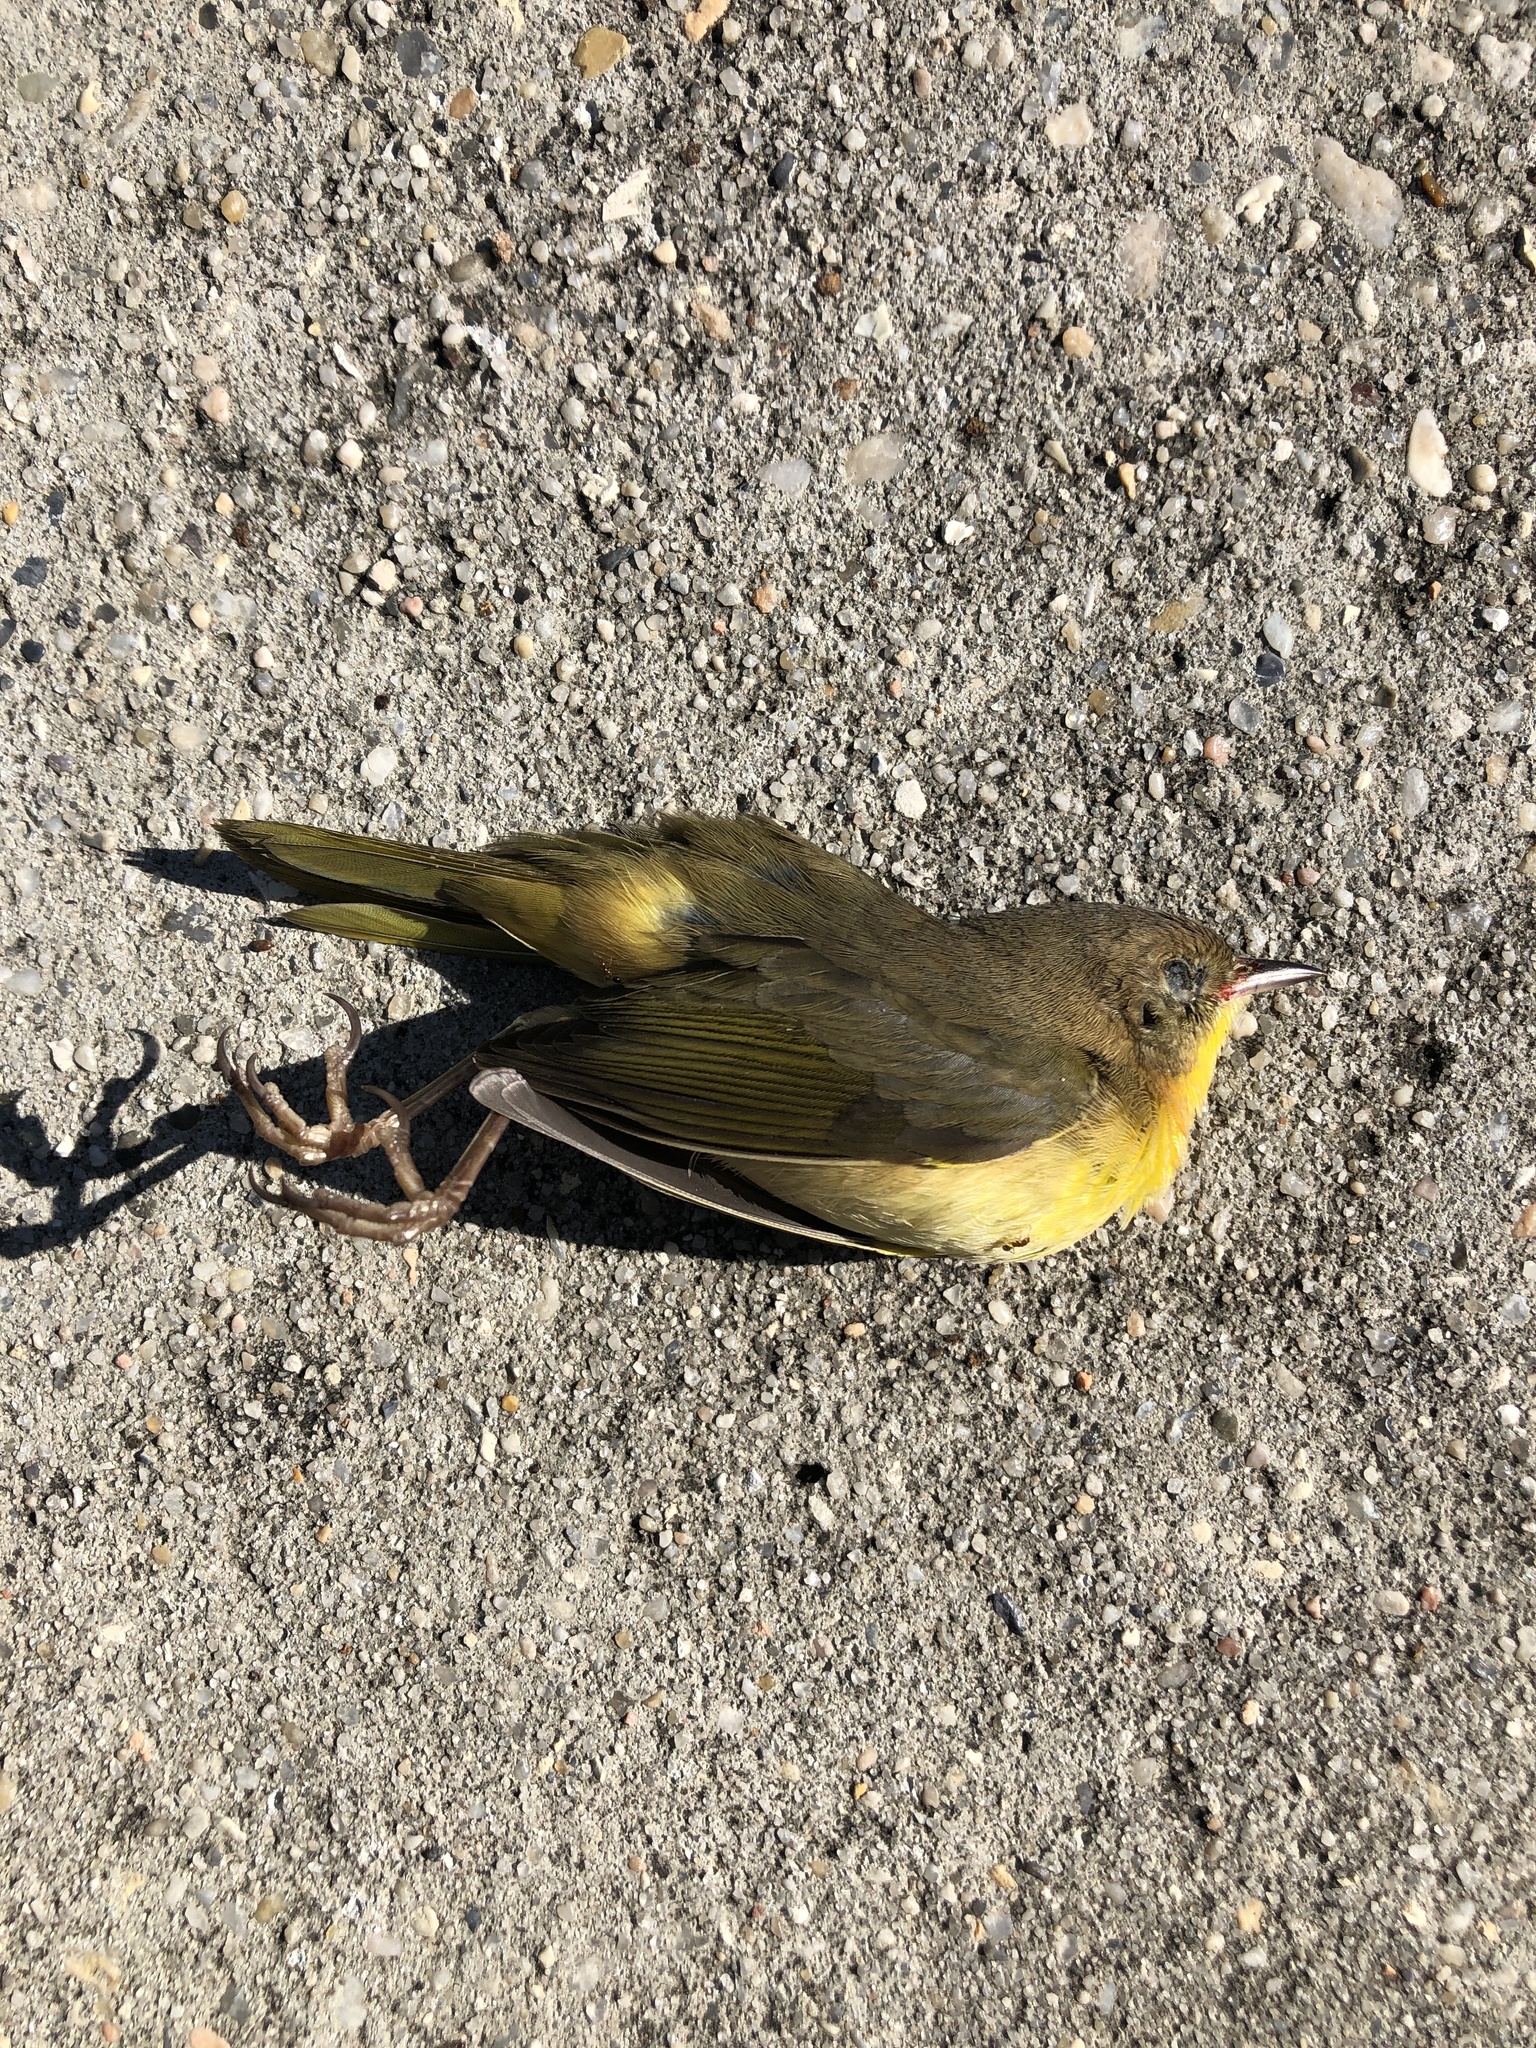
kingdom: Animalia
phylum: Chordata
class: Aves
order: Passeriformes
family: Parulidae
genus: Geothlypis
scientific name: Geothlypis trichas
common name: Common yellowthroat
